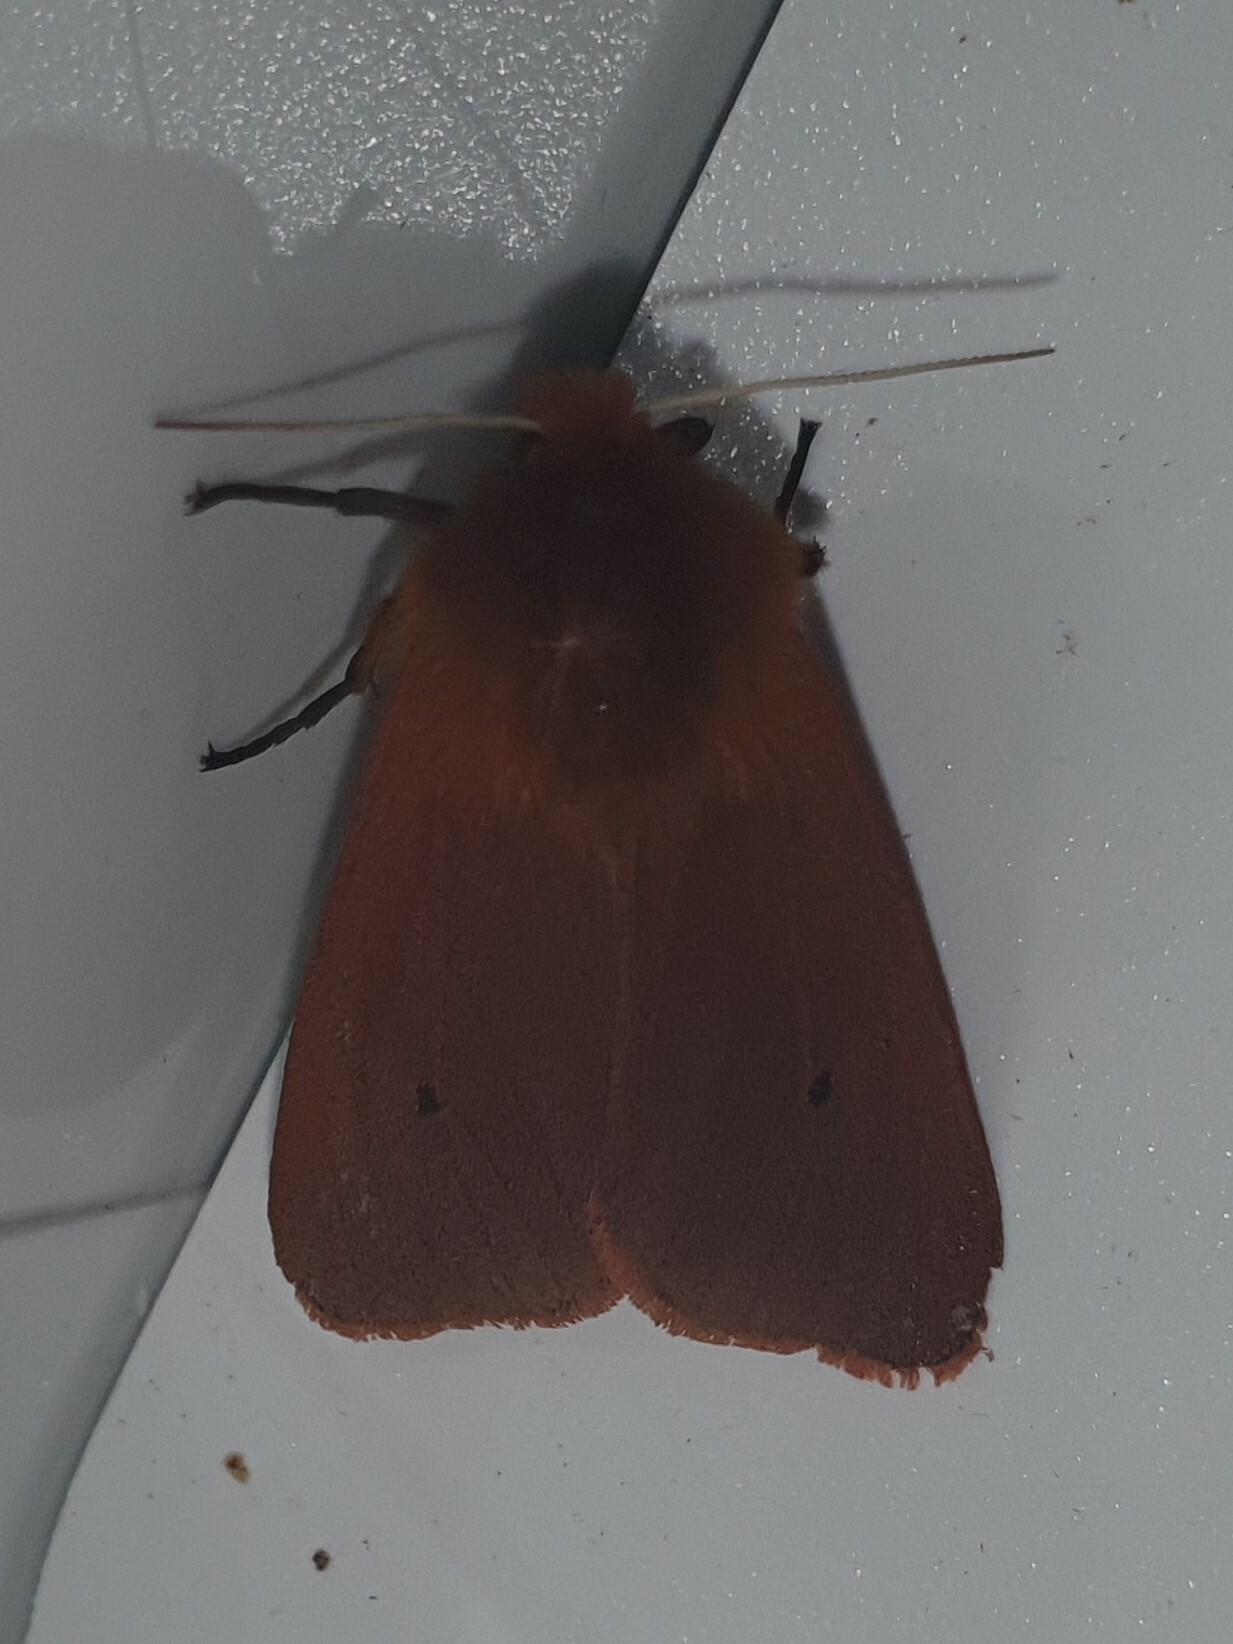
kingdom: Animalia
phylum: Arthropoda
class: Insecta
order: Lepidoptera
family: Erebidae
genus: Phragmatobia
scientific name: Phragmatobia fuliginosa
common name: Ruby tiger
